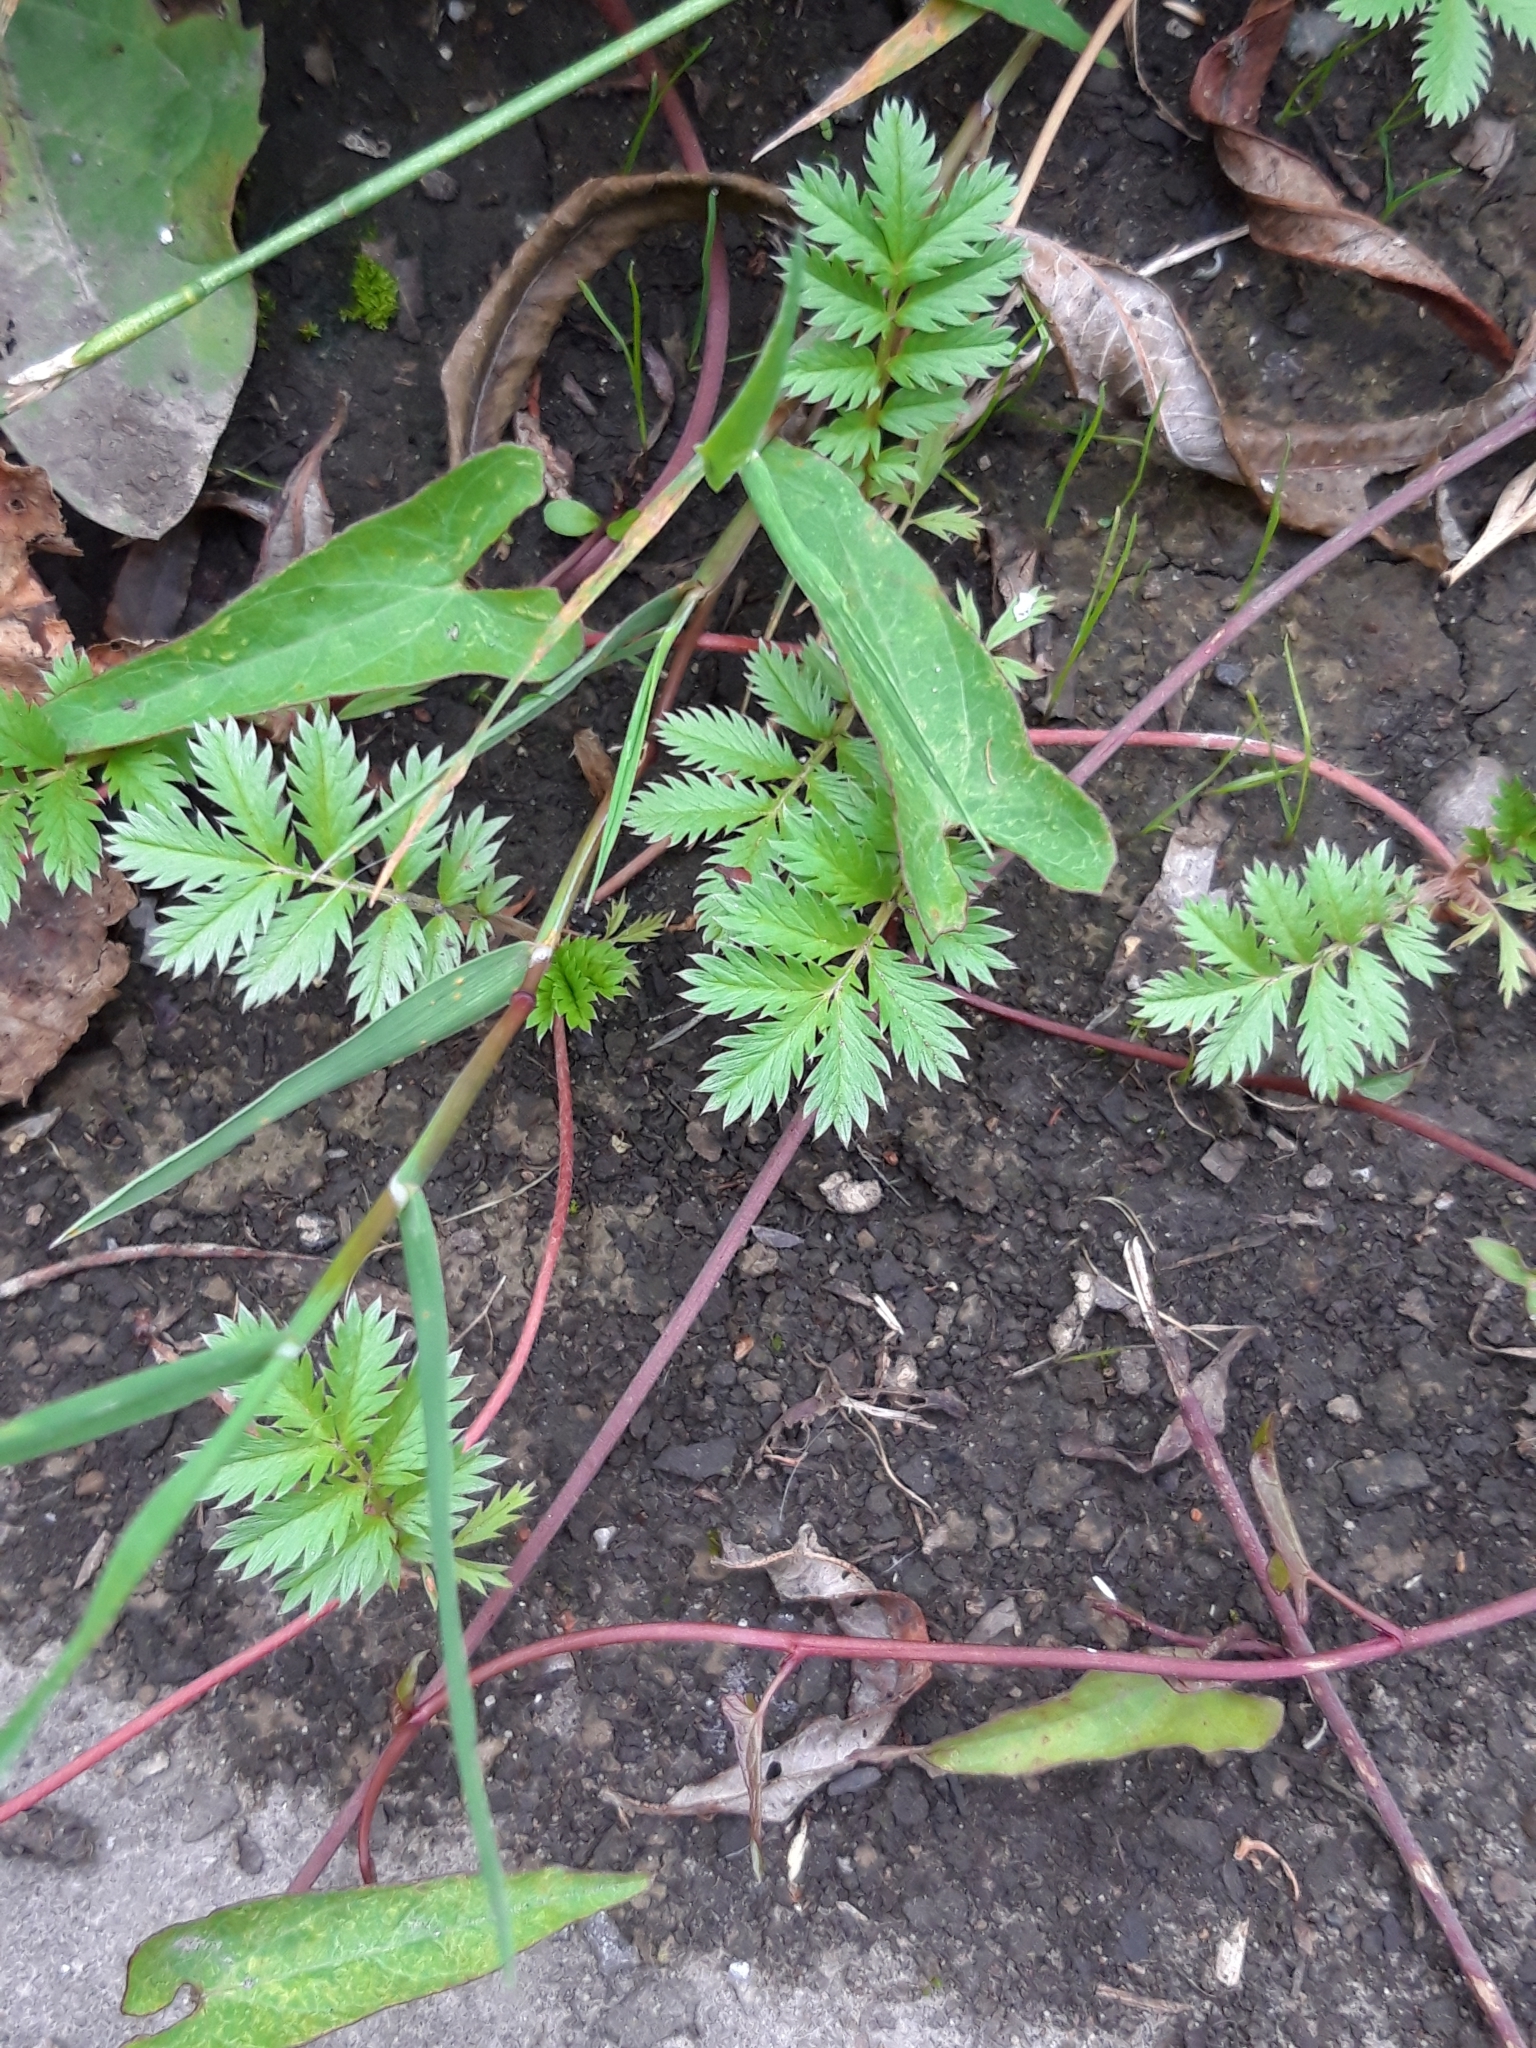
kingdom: Plantae
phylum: Tracheophyta
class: Magnoliopsida
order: Rosales
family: Rosaceae
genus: Argentina
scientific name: Argentina anserina
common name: Common silverweed
